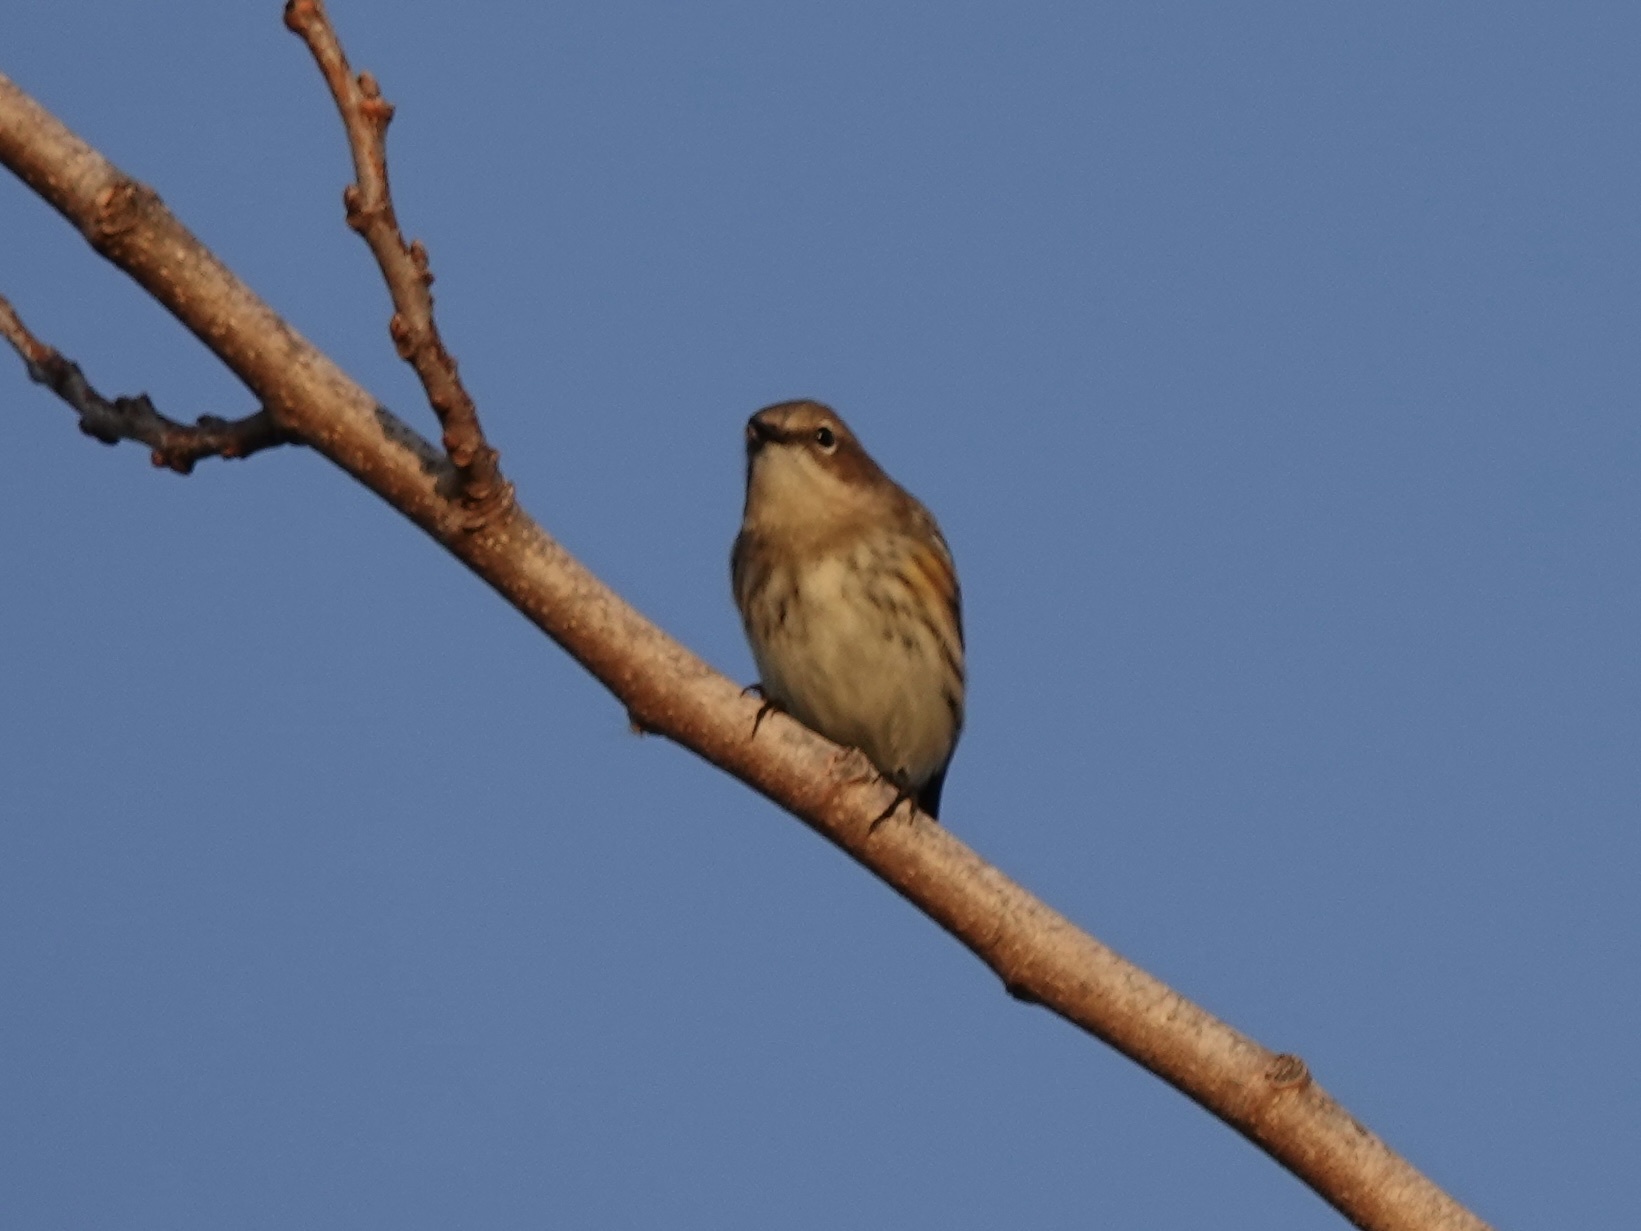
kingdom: Animalia
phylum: Chordata
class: Aves
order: Passeriformes
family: Parulidae
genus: Setophaga
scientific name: Setophaga coronata
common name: Myrtle warbler
